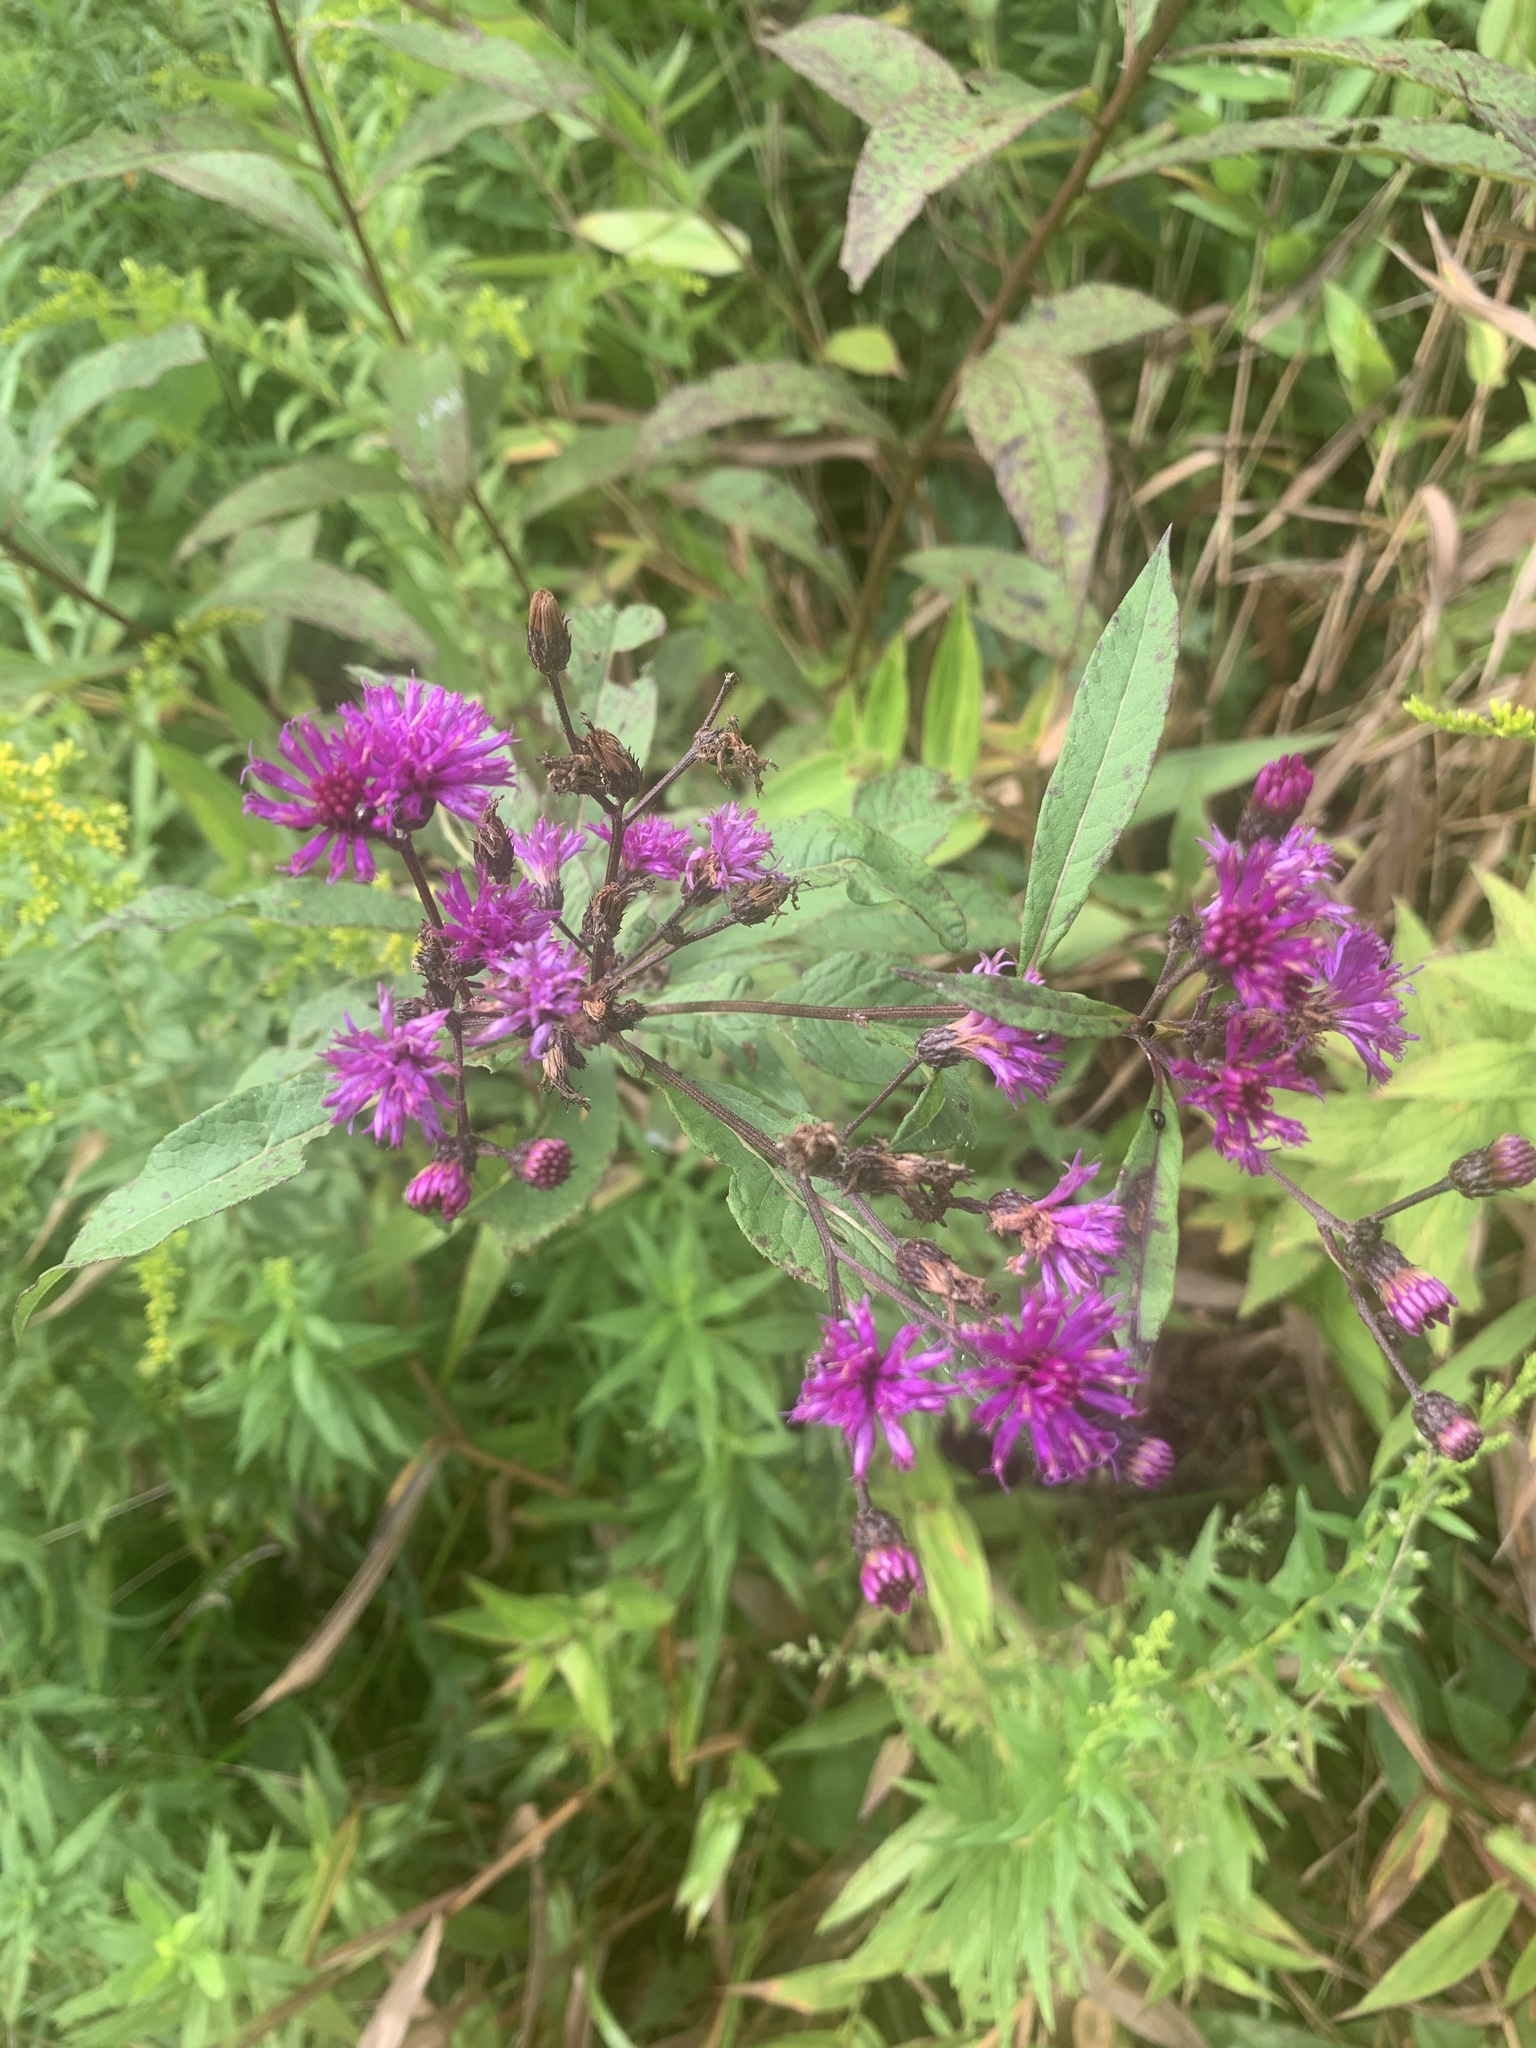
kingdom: Plantae
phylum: Tracheophyta
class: Magnoliopsida
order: Asterales
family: Asteraceae
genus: Vernonia
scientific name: Vernonia noveboracensis
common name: New york ironweed
